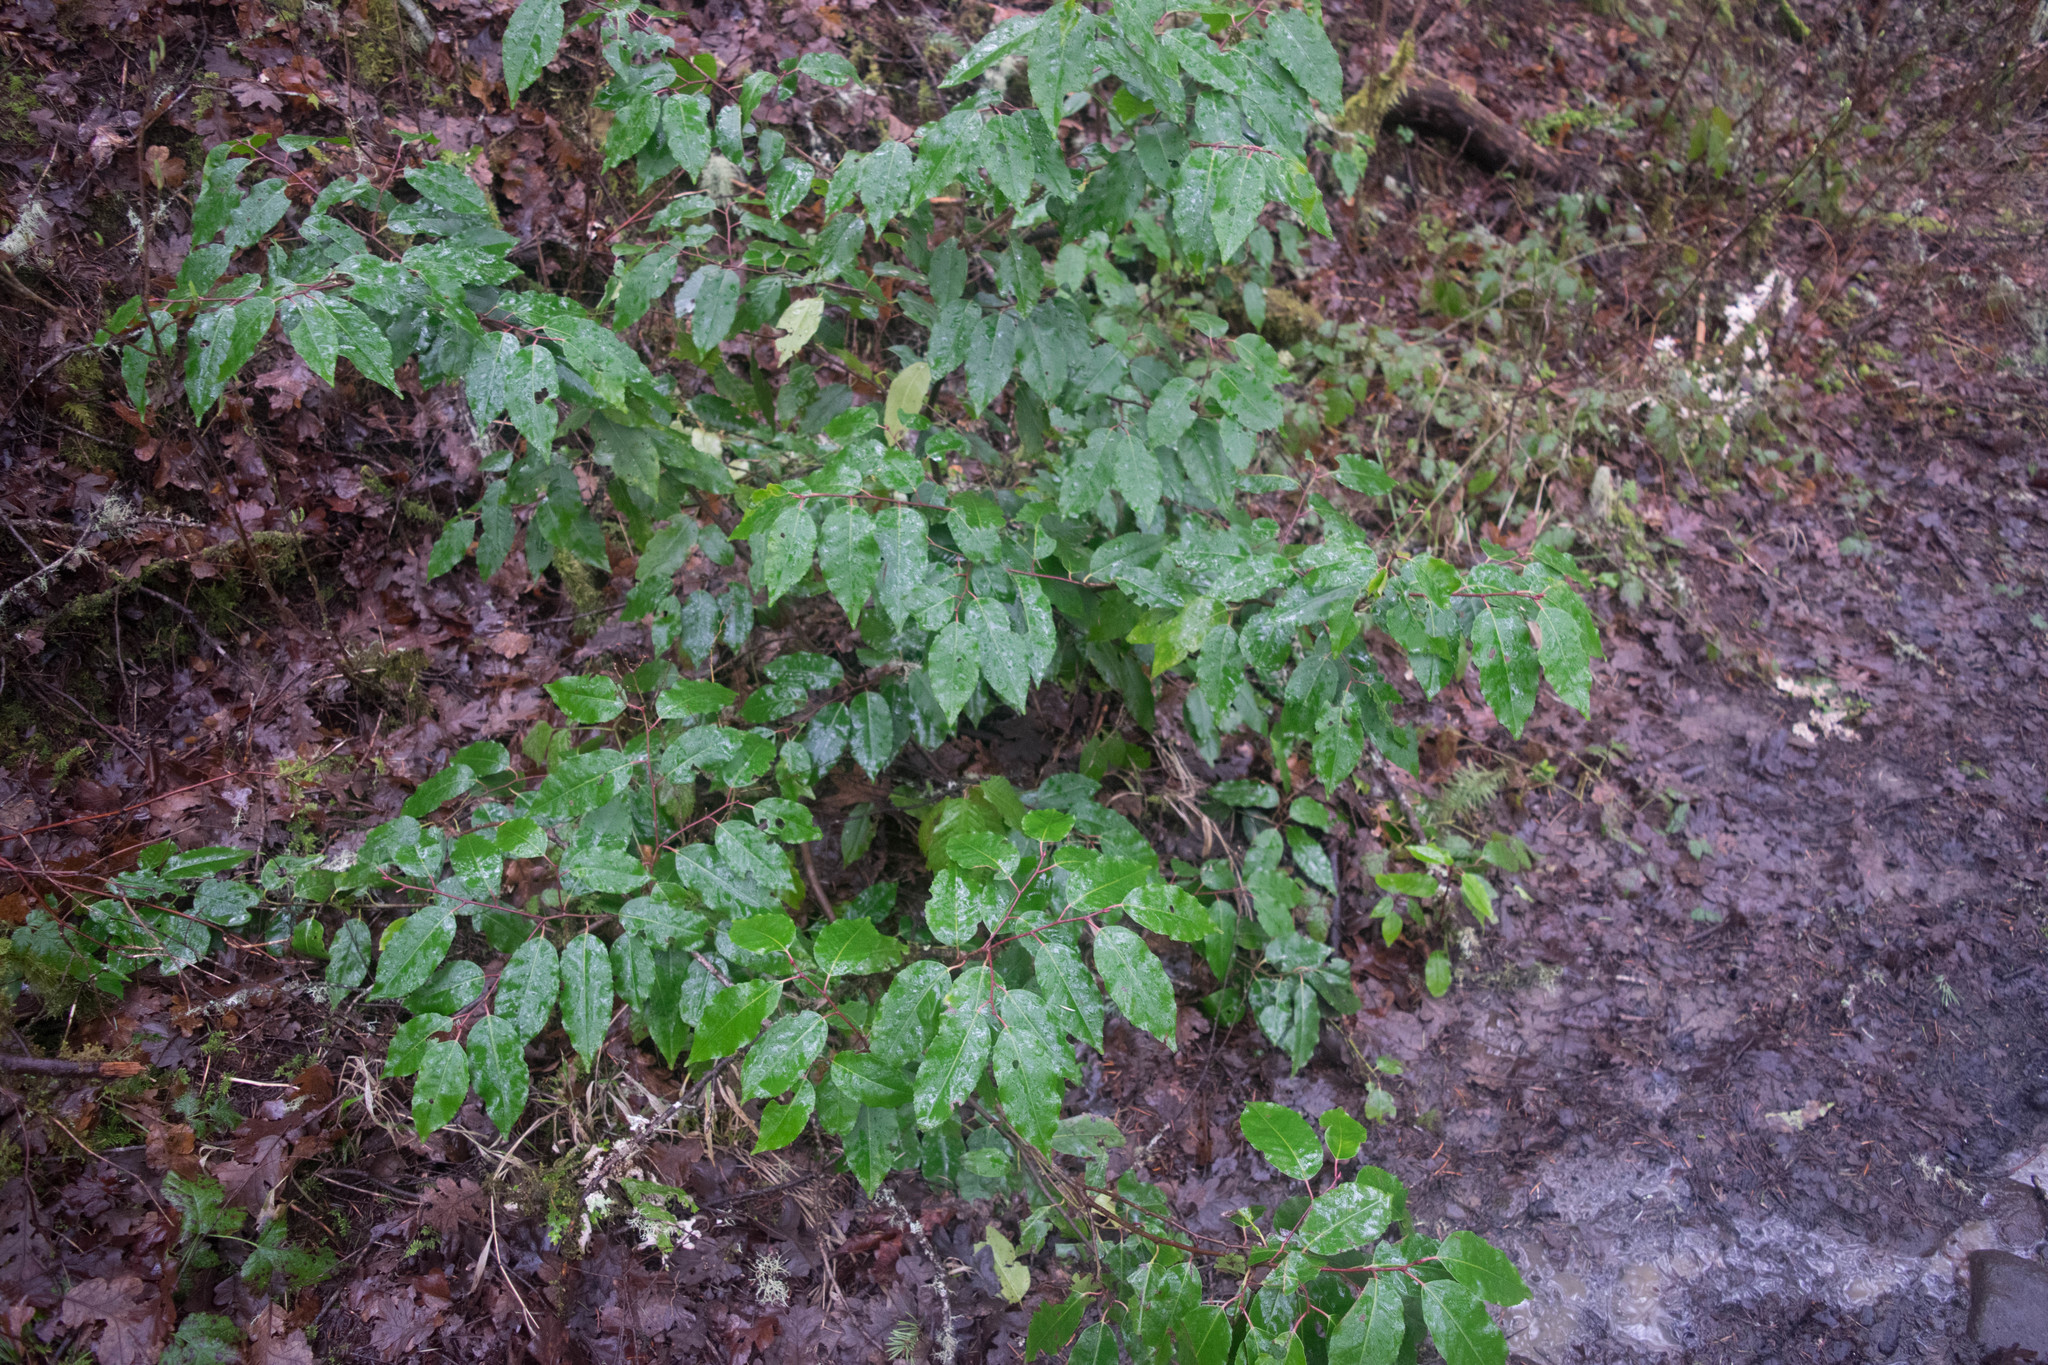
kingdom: Plantae
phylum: Tracheophyta
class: Magnoliopsida
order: Rosales
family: Rosaceae
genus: Prunus
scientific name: Prunus lusitanica
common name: Portugal laurel
